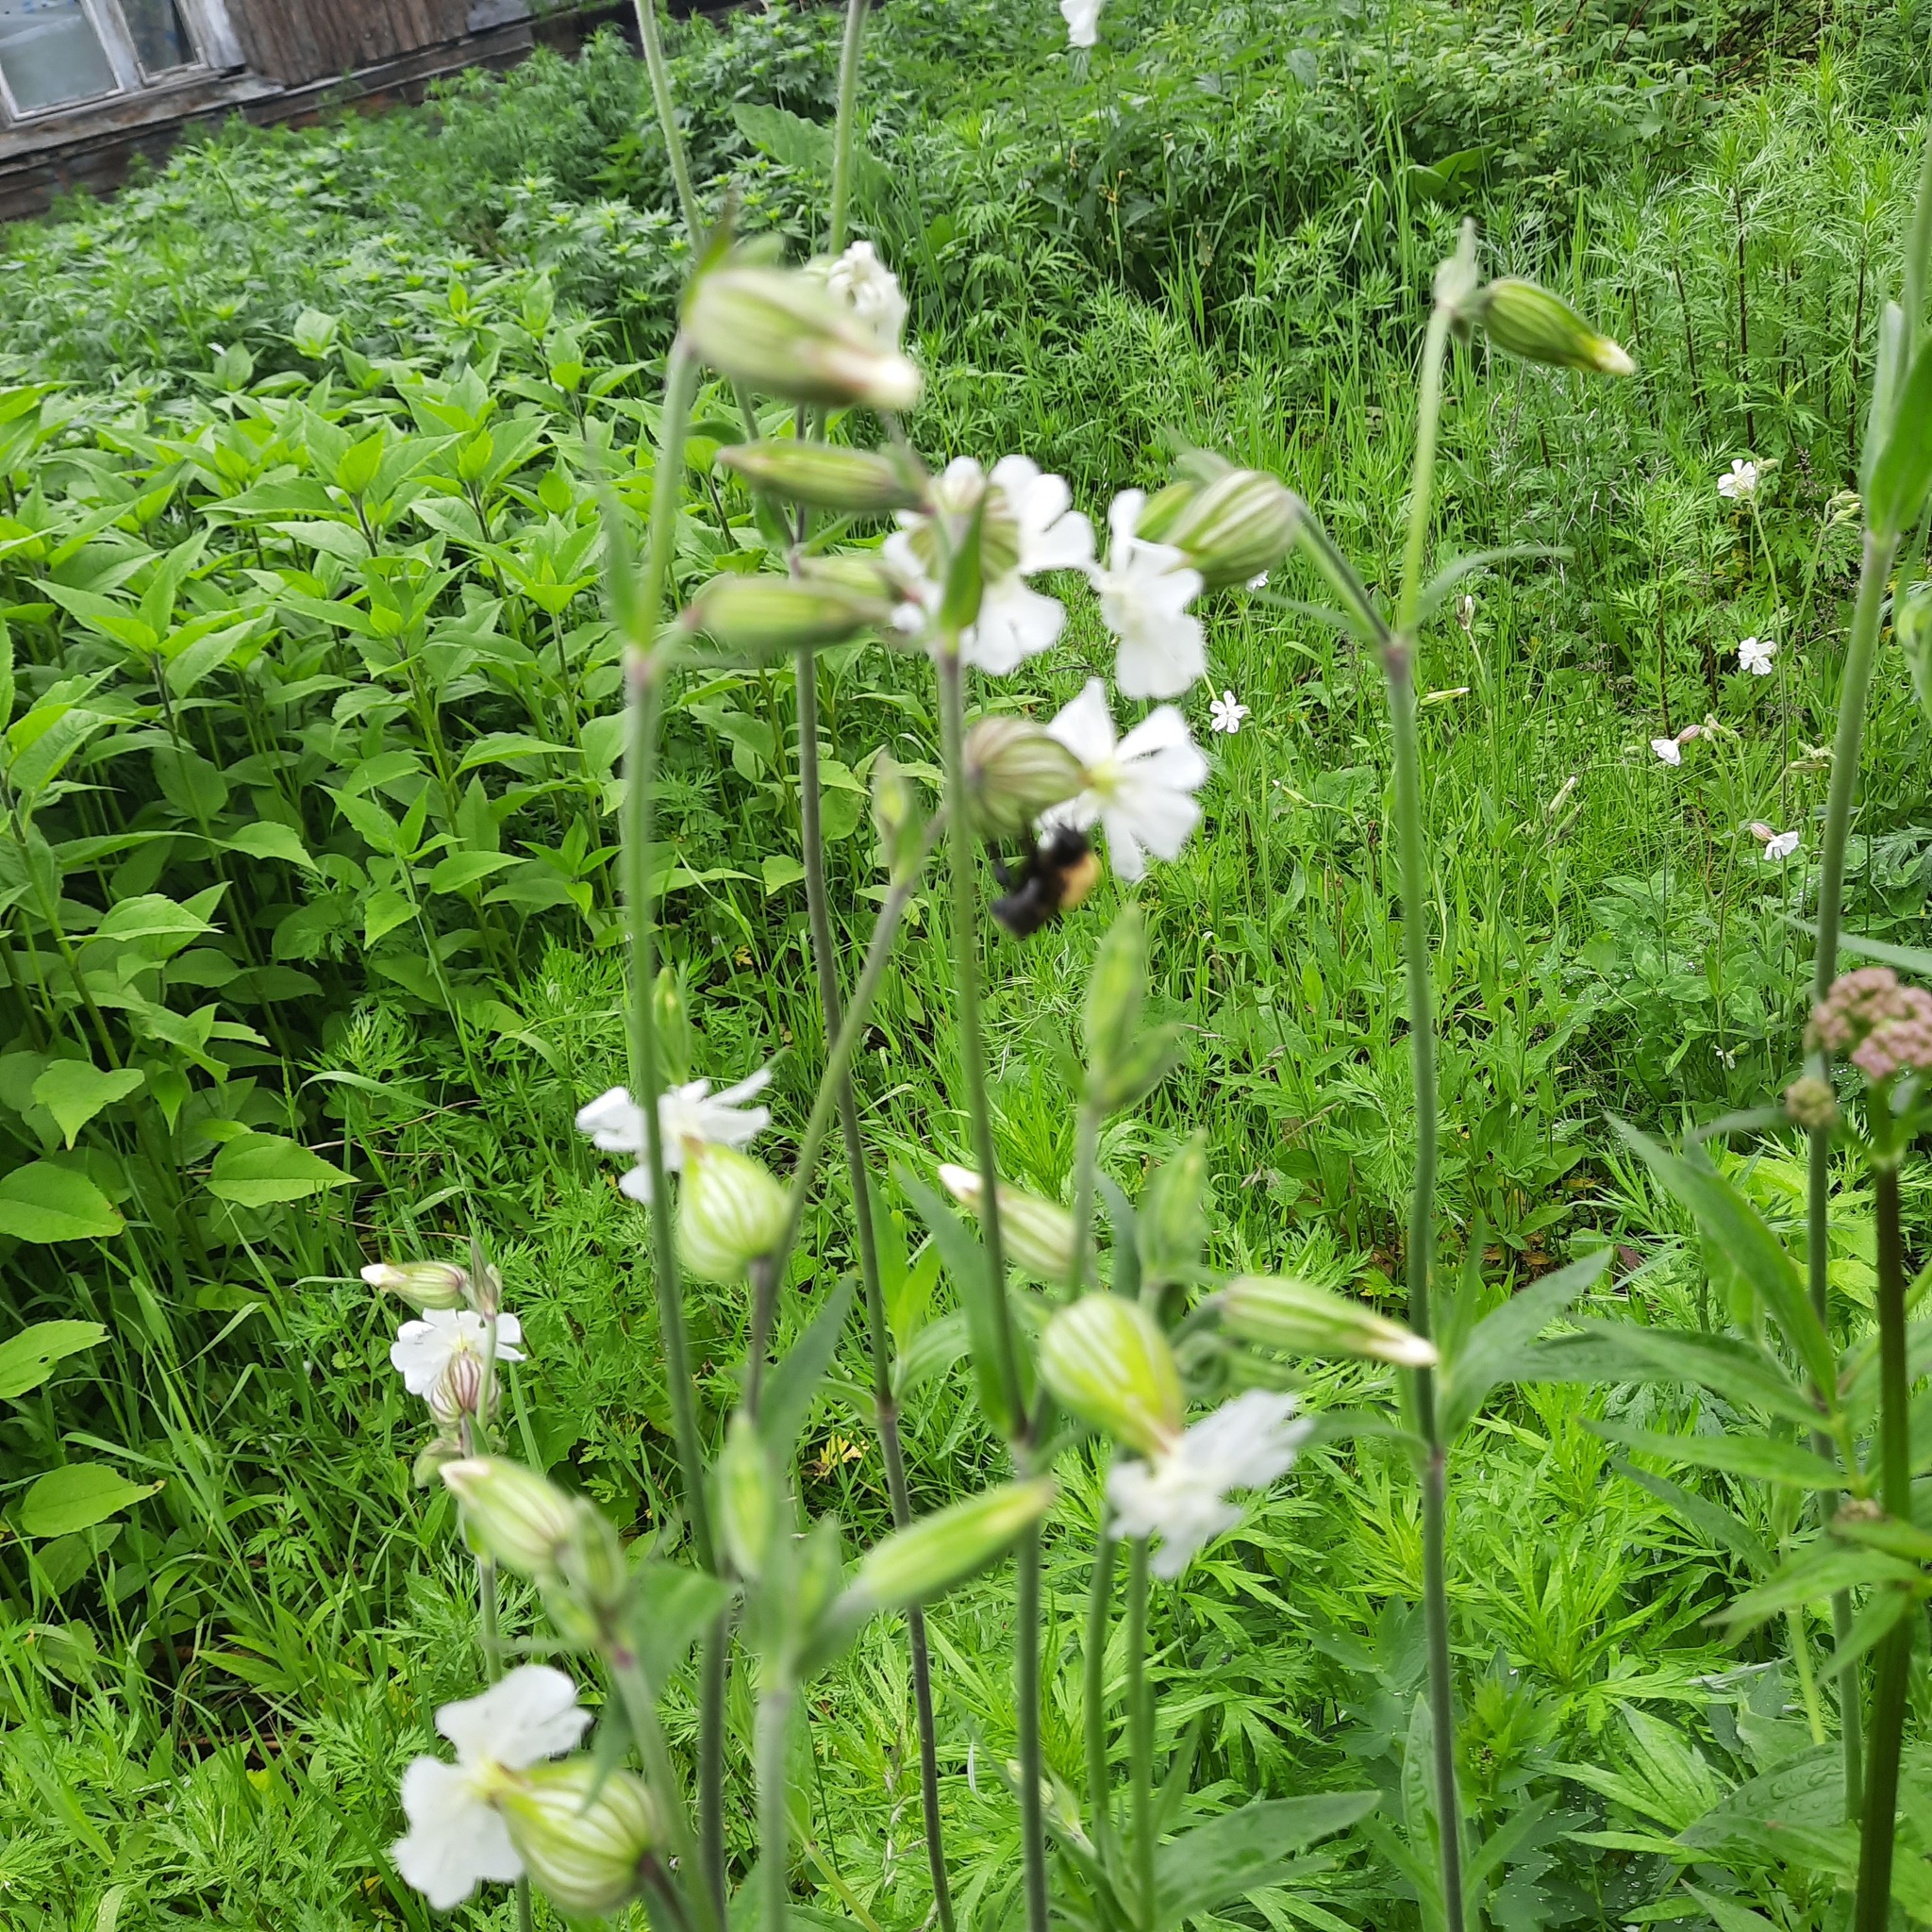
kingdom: Plantae
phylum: Tracheophyta
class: Magnoliopsida
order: Caryophyllales
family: Caryophyllaceae
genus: Silene
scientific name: Silene latifolia
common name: White campion
